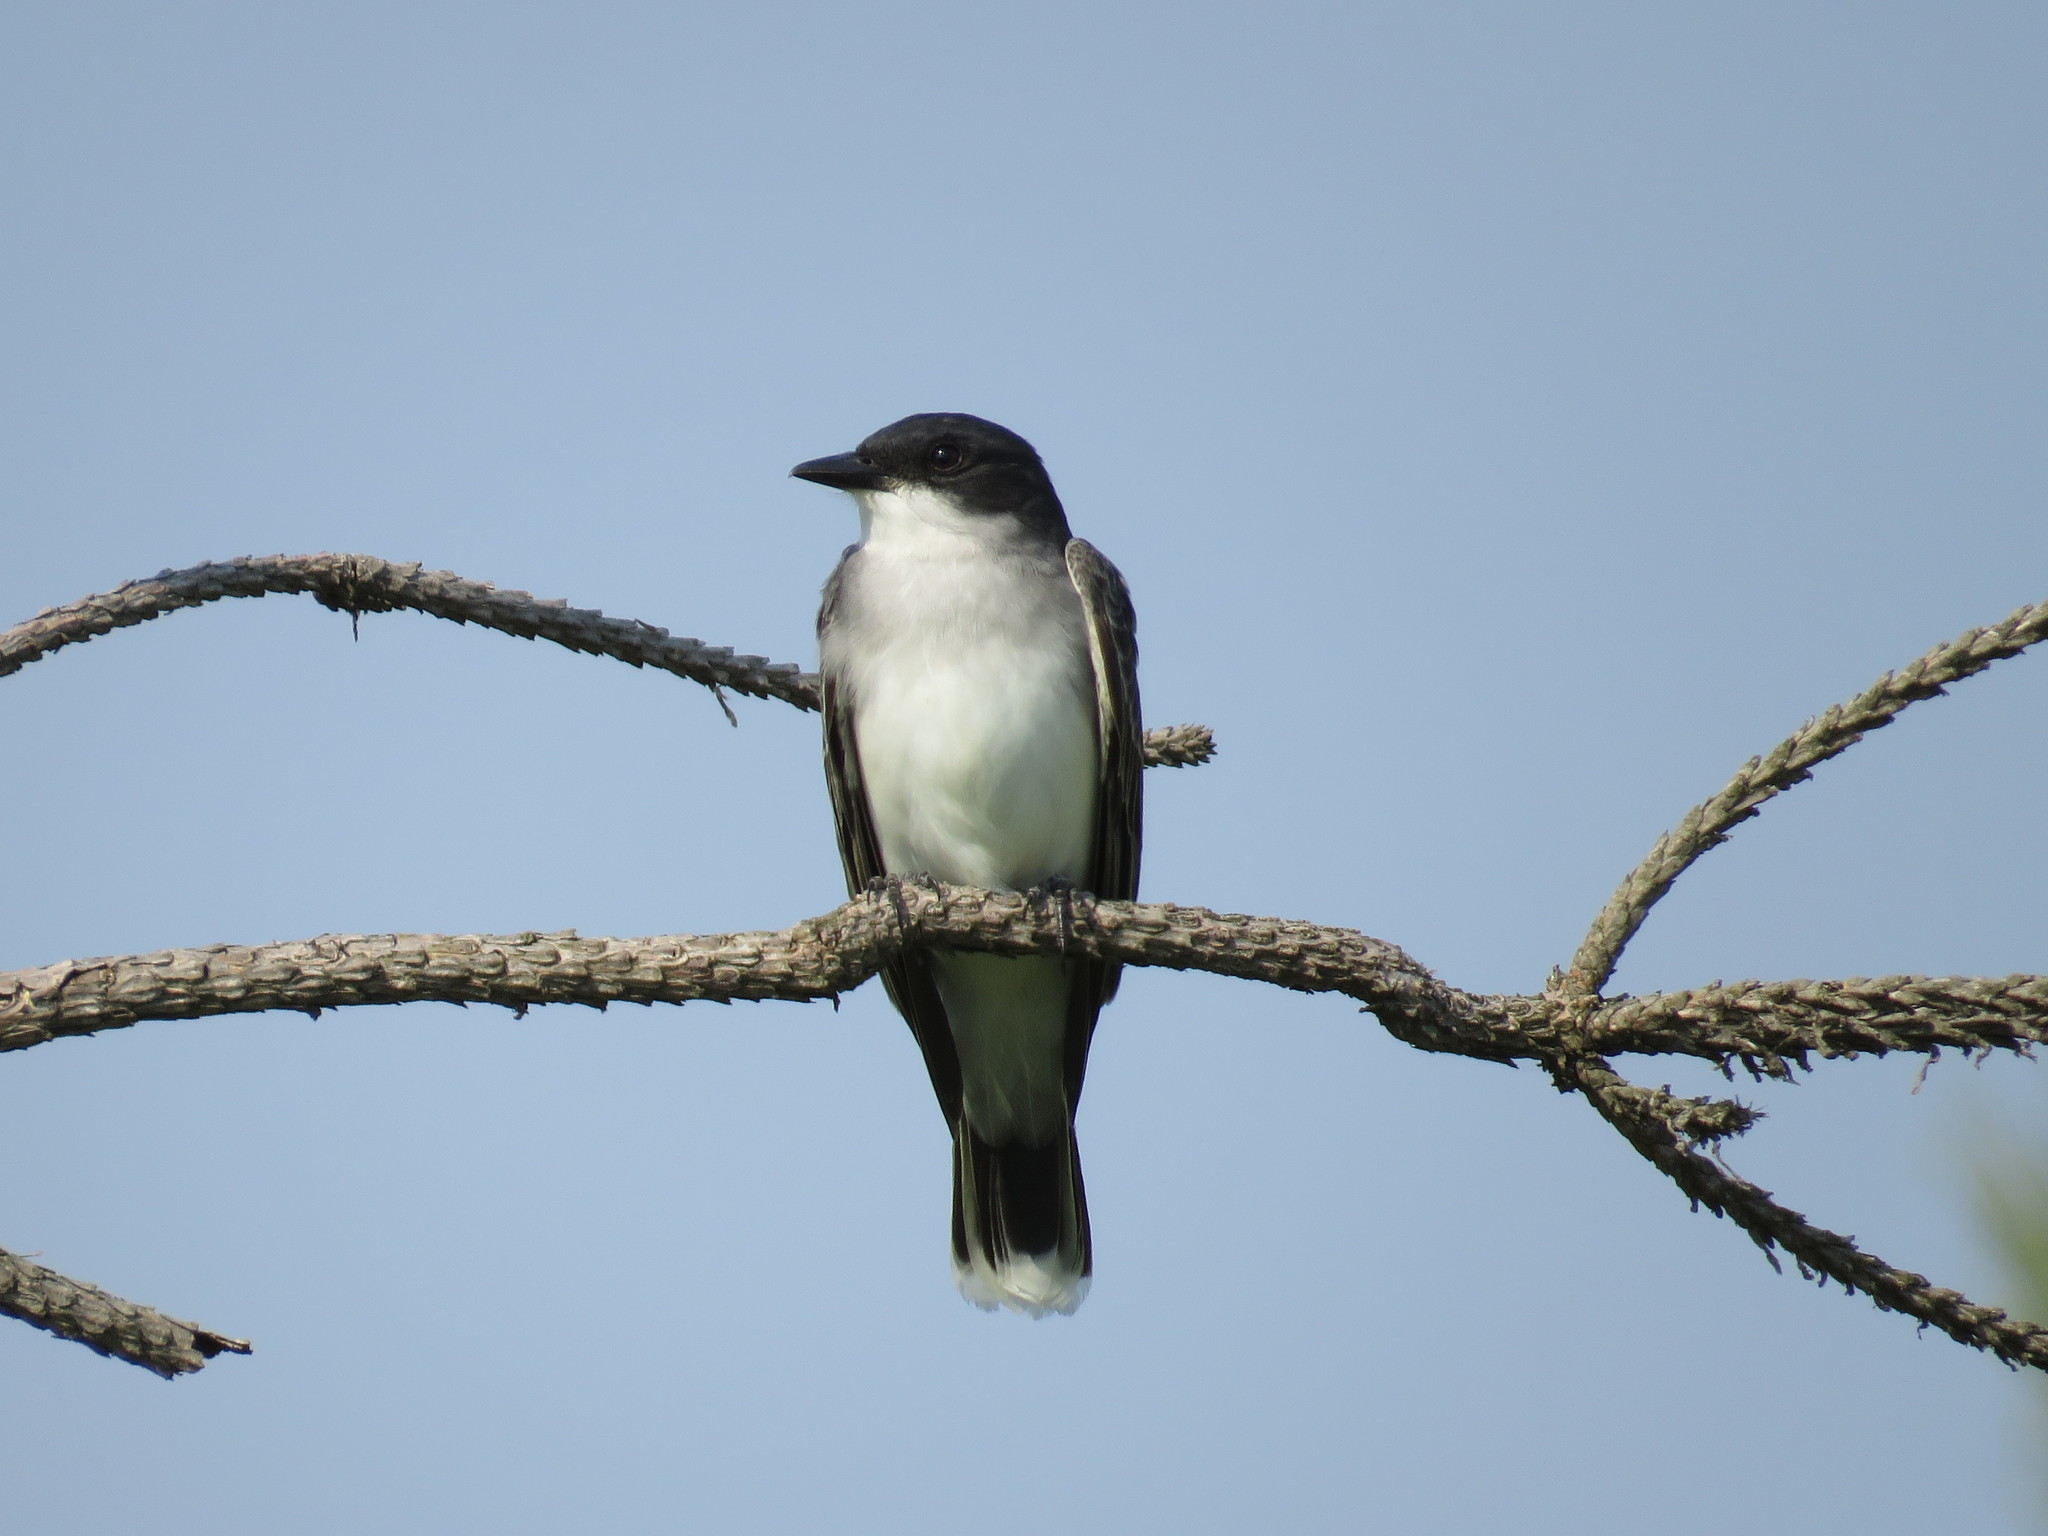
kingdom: Animalia
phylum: Chordata
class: Aves
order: Passeriformes
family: Tyrannidae
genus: Tyrannus
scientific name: Tyrannus tyrannus
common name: Eastern kingbird
